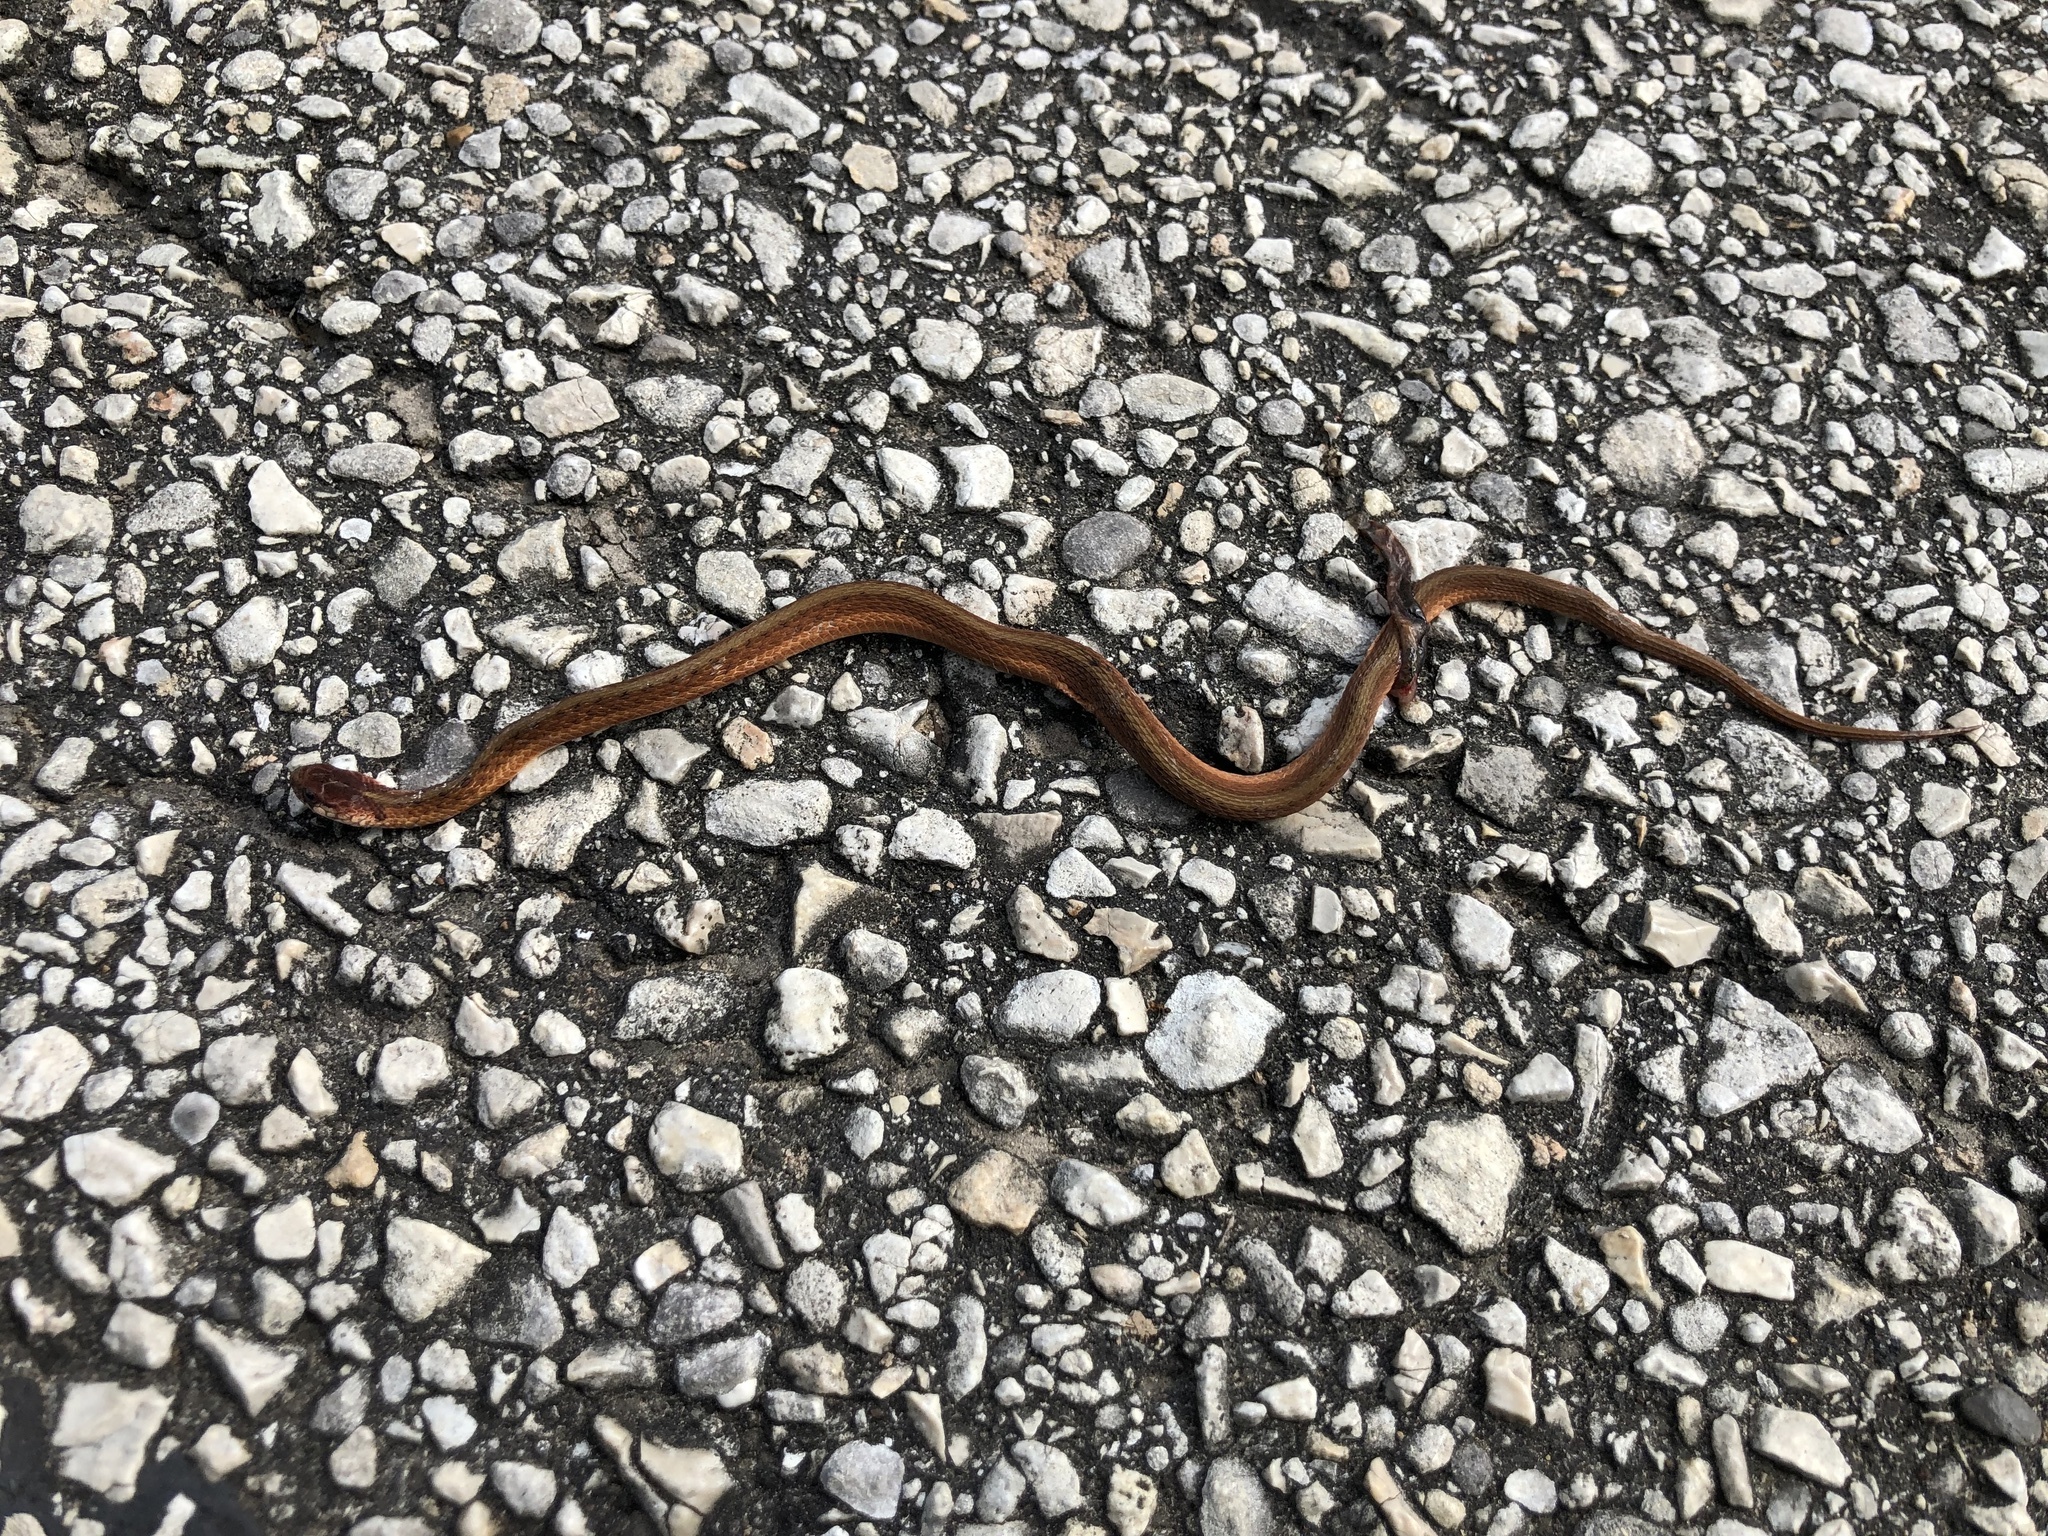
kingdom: Animalia
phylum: Chordata
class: Squamata
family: Colubridae
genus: Storeria
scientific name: Storeria dekayi
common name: (dekay’s) brown snake
